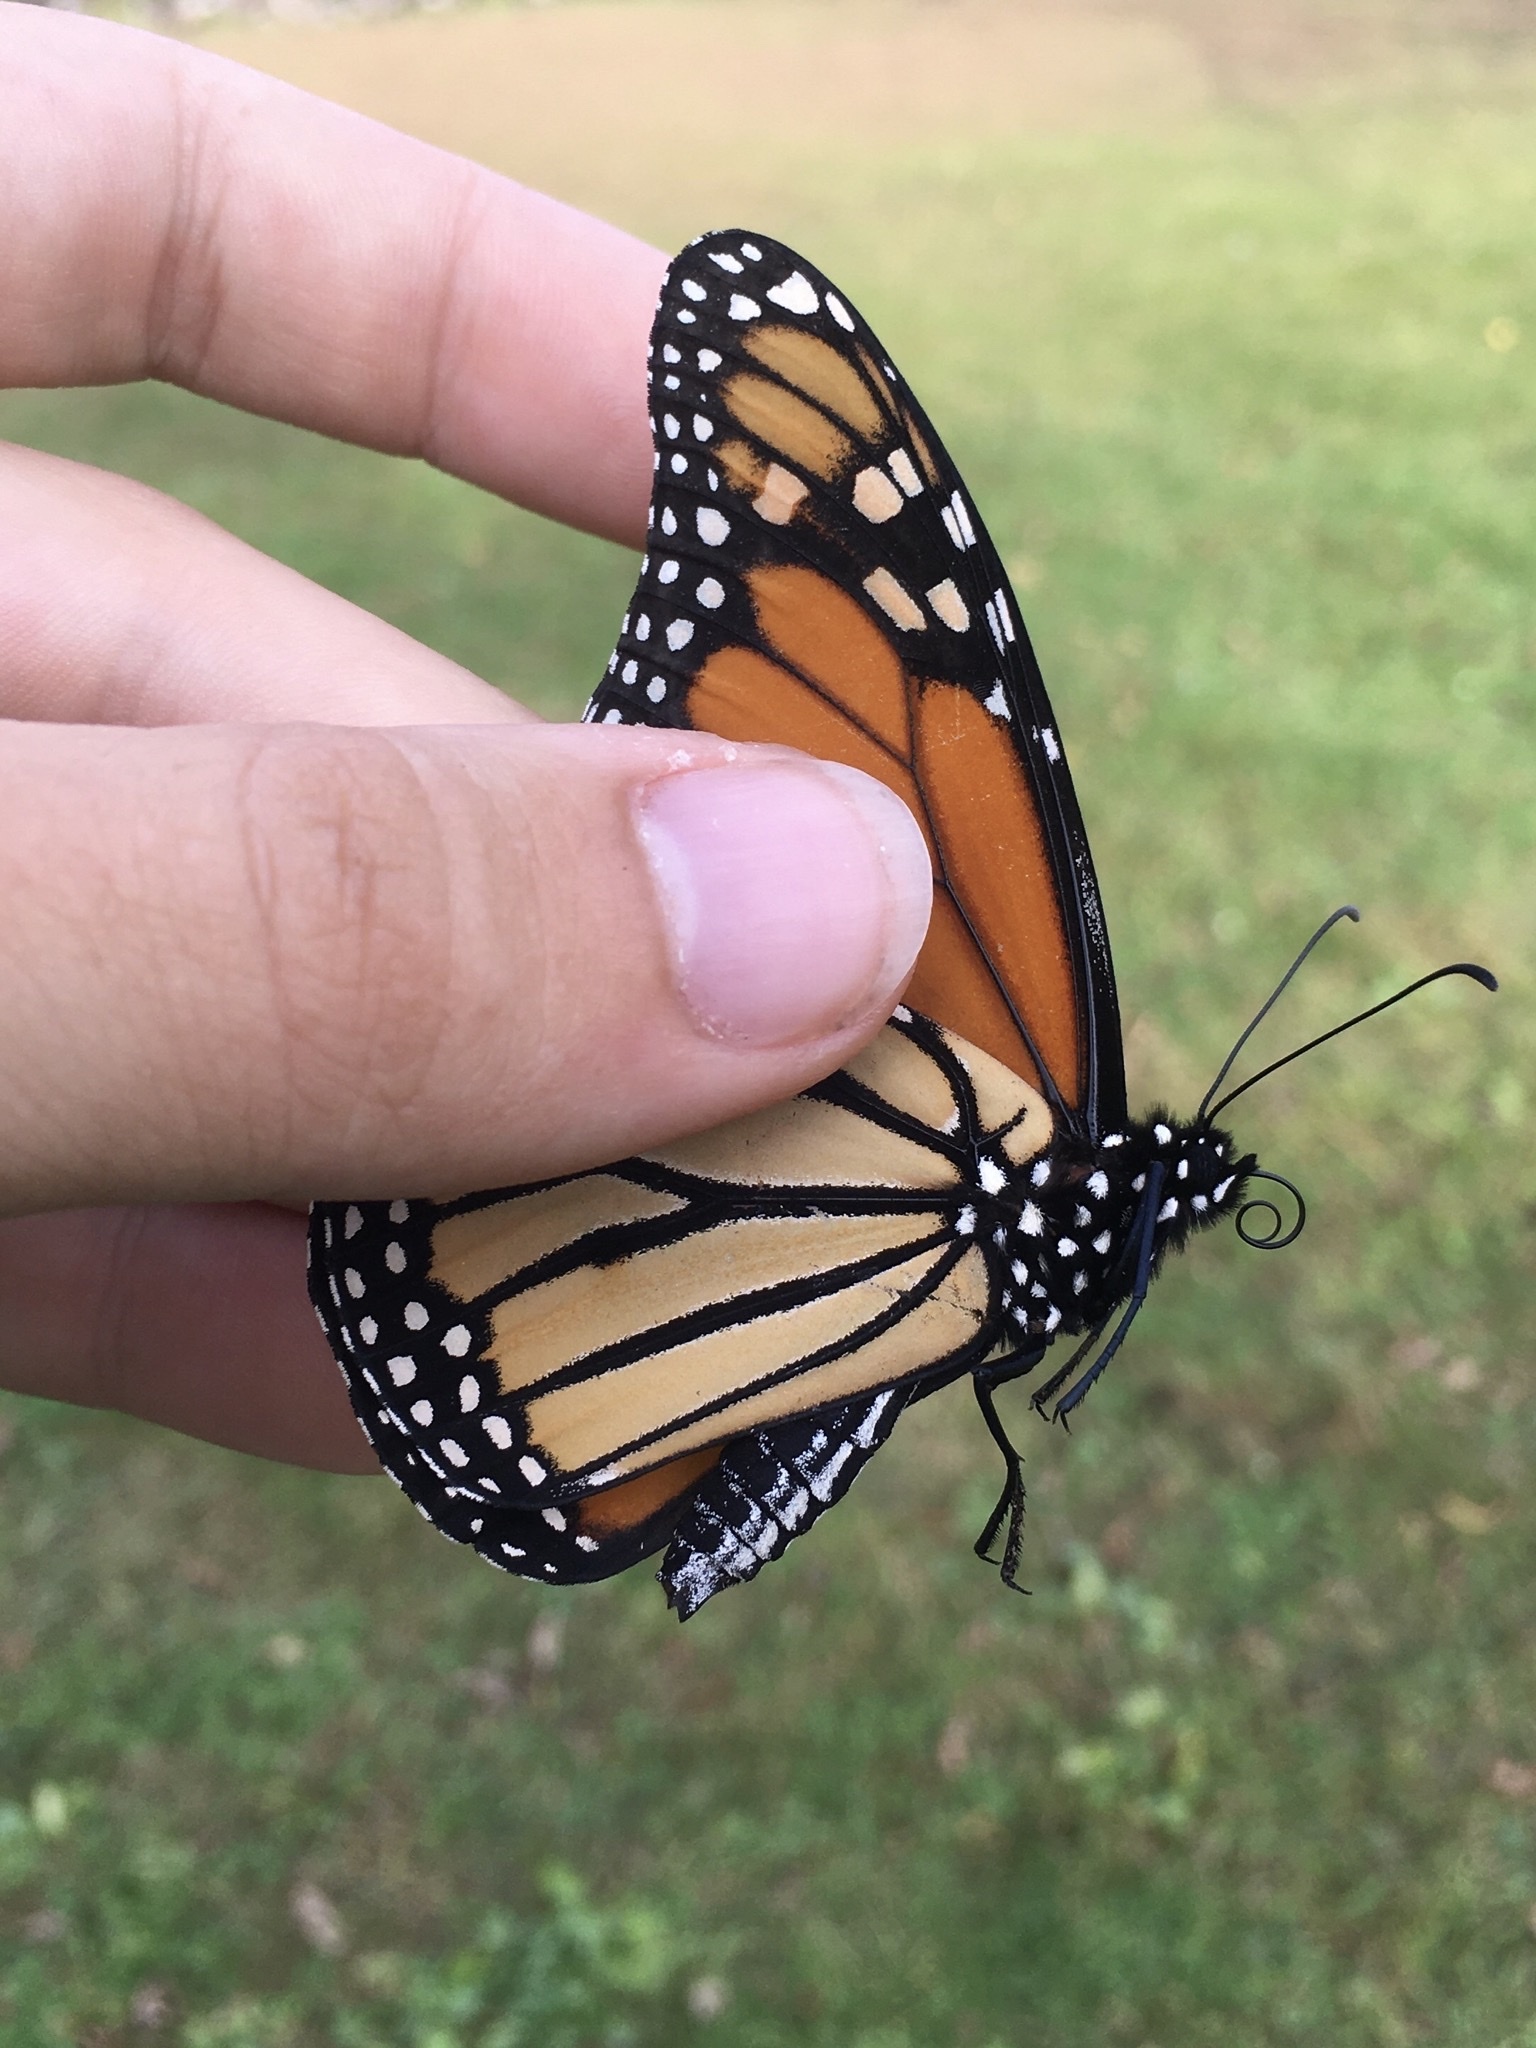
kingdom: Animalia
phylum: Arthropoda
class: Insecta
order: Lepidoptera
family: Nymphalidae
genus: Danaus
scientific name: Danaus plexippus
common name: Monarch
